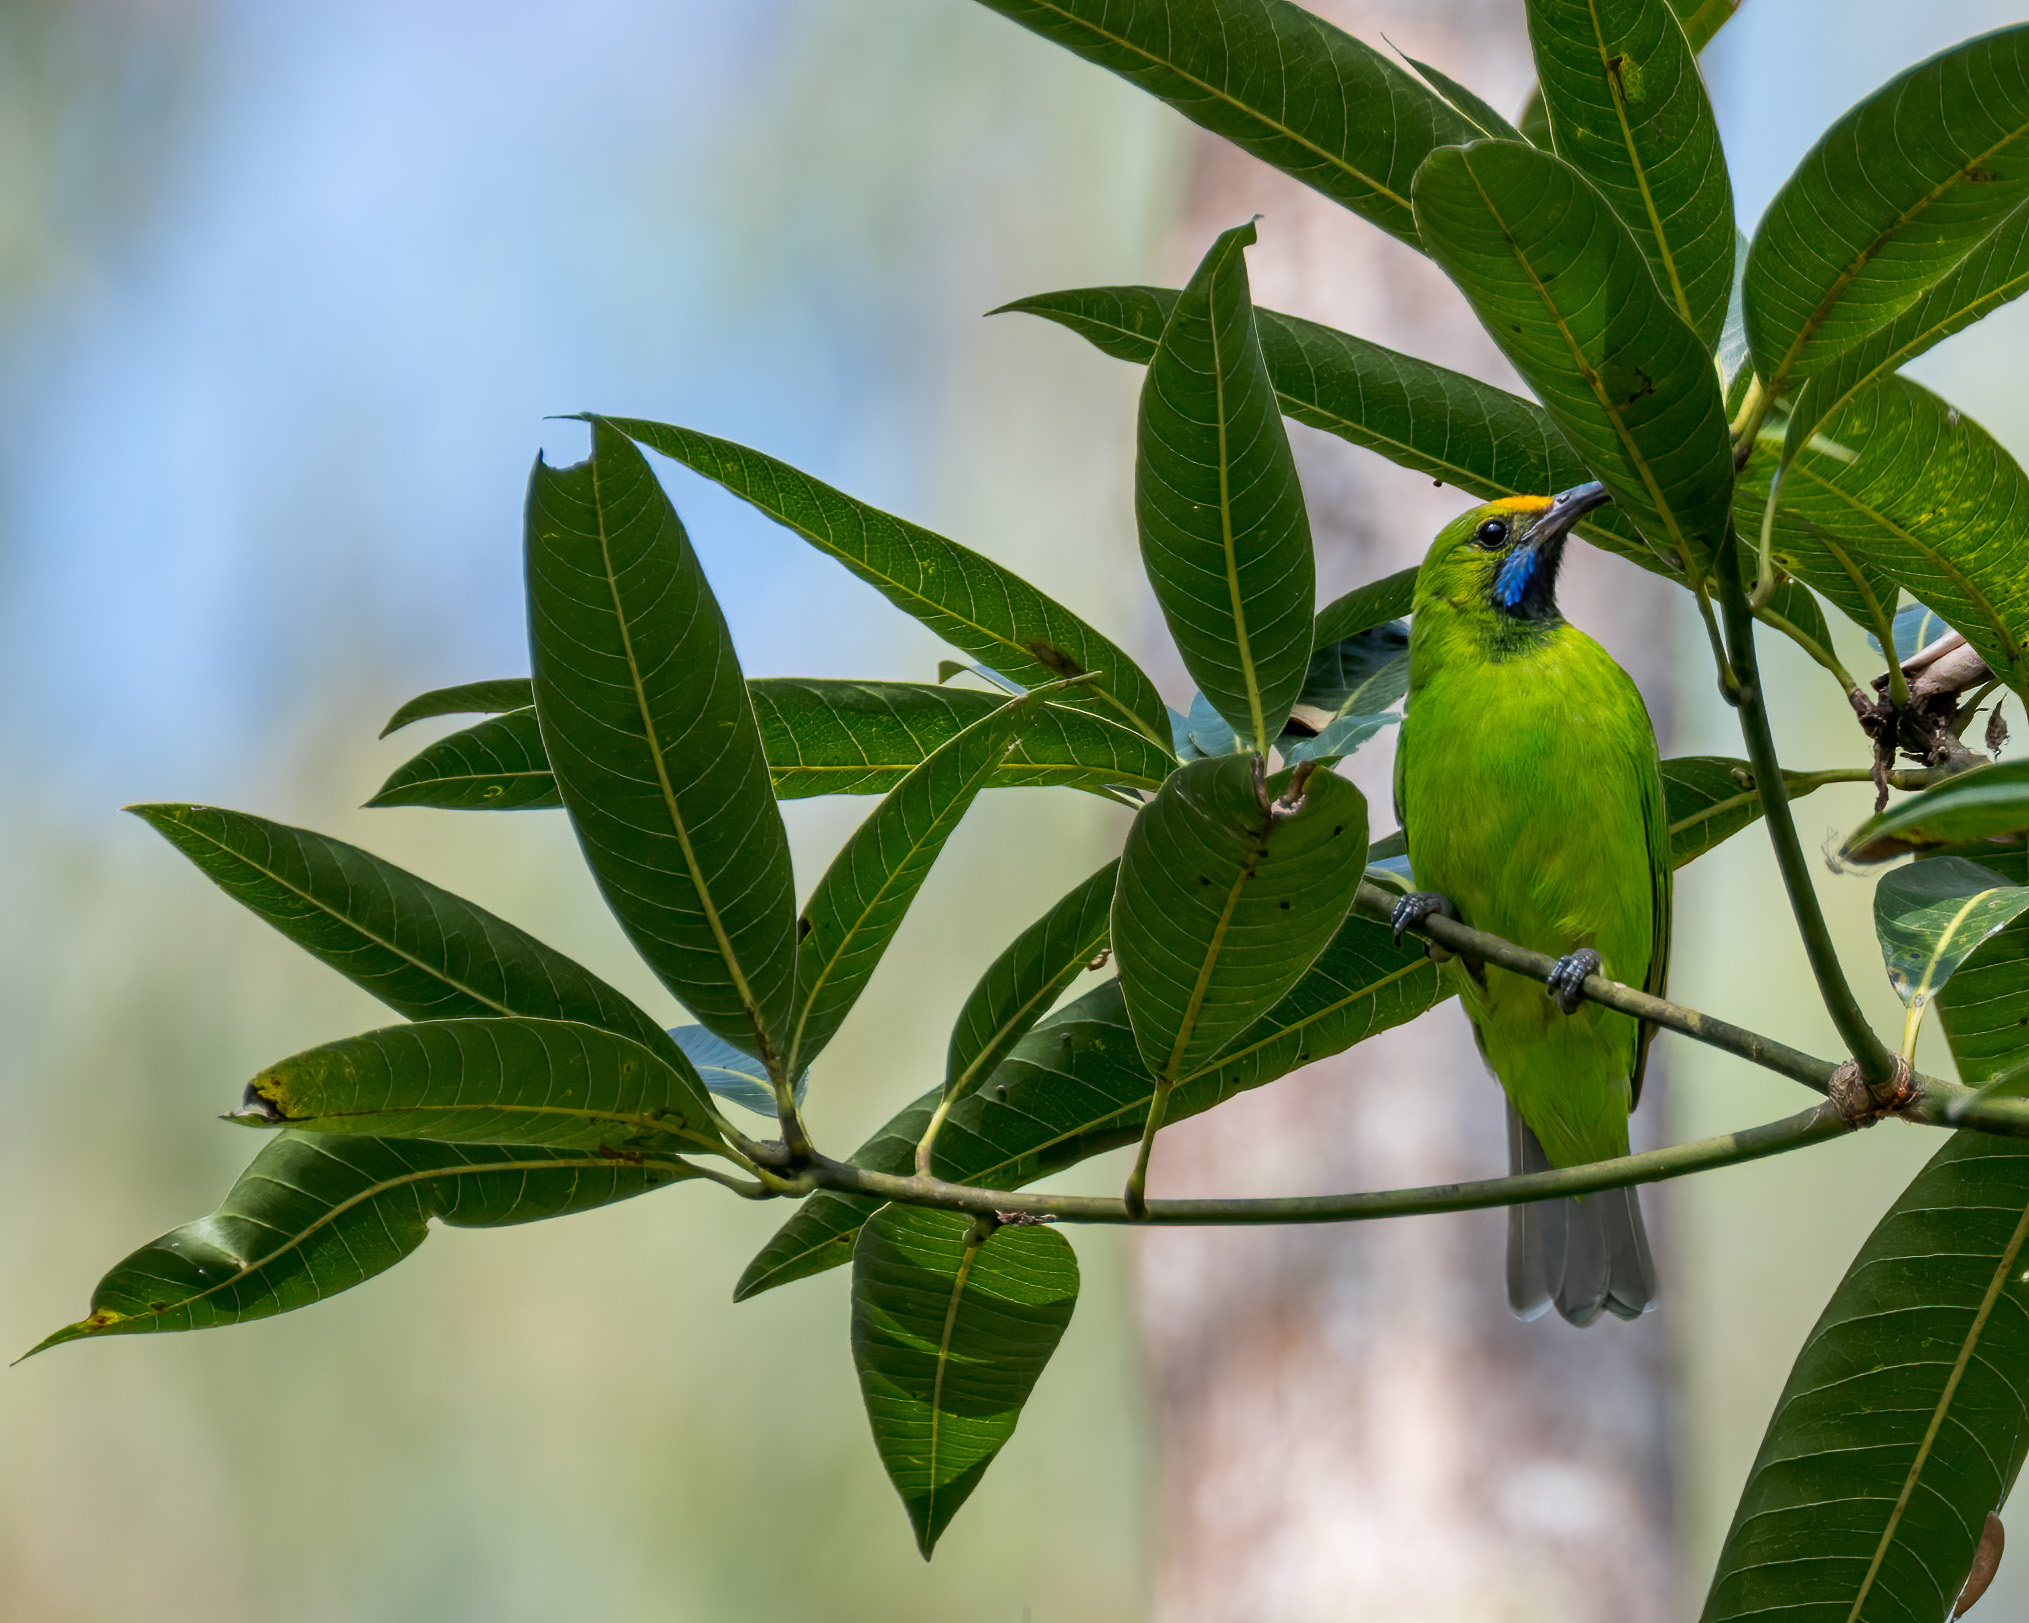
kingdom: Animalia
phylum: Chordata
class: Aves
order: Passeriformes
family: Chloropseidae
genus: Chloropsis
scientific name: Chloropsis aurifrons
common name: Golden-fronted leafbird
